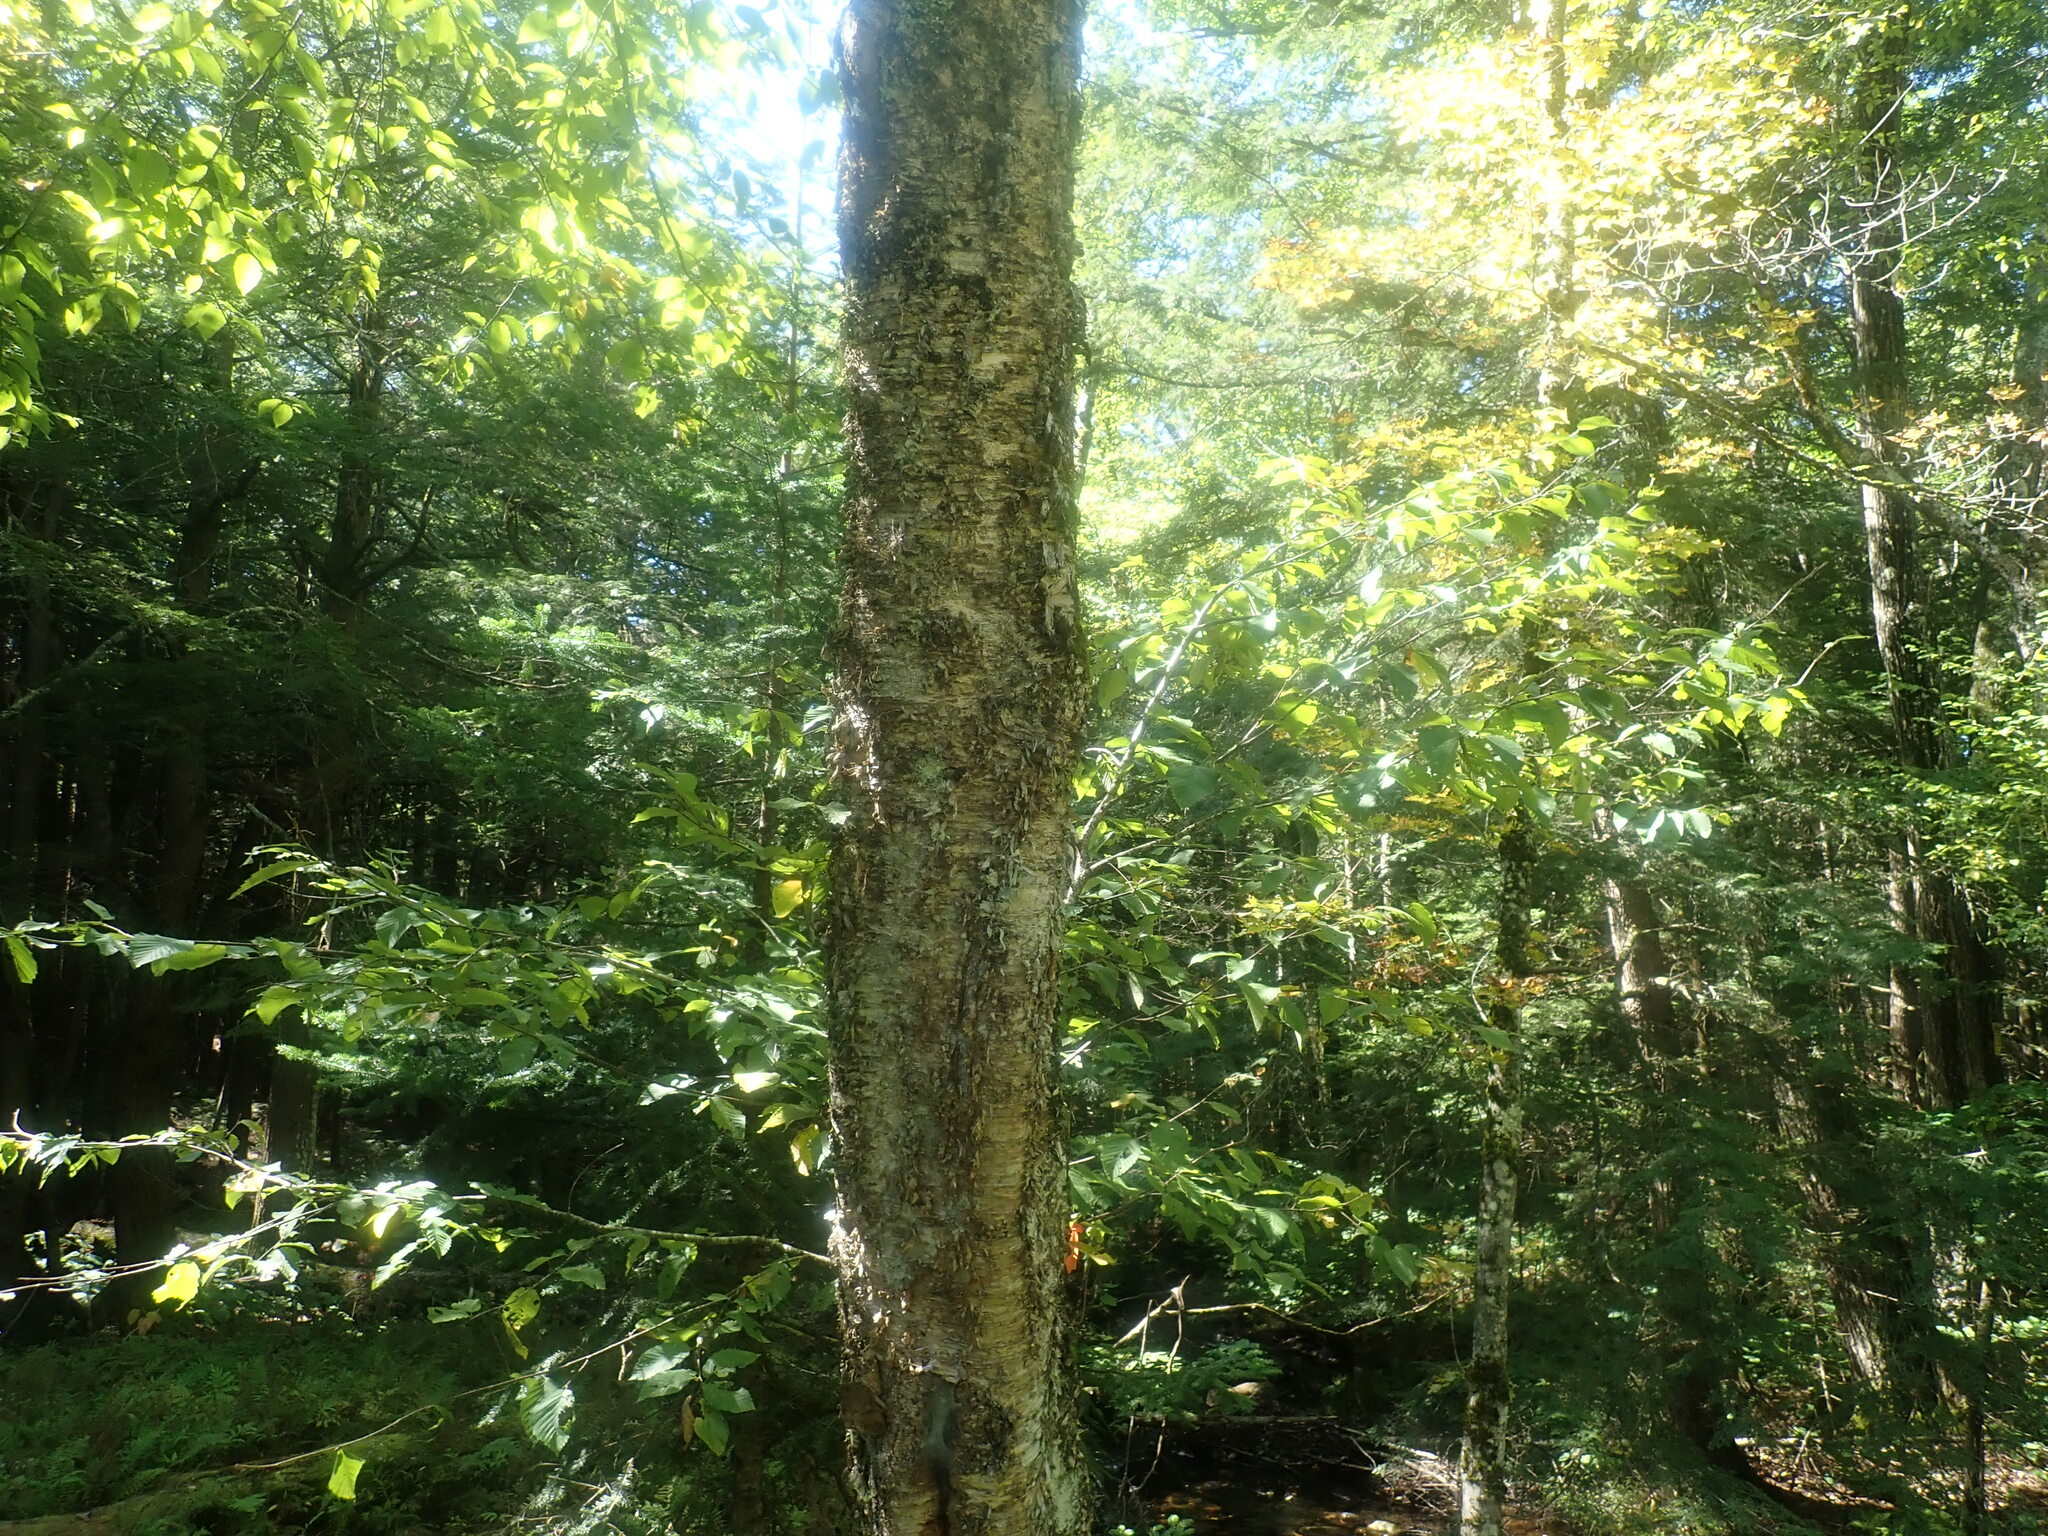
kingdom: Plantae
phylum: Tracheophyta
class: Magnoliopsida
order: Fagales
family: Betulaceae
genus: Betula
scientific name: Betula alleghaniensis
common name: Yellow birch
